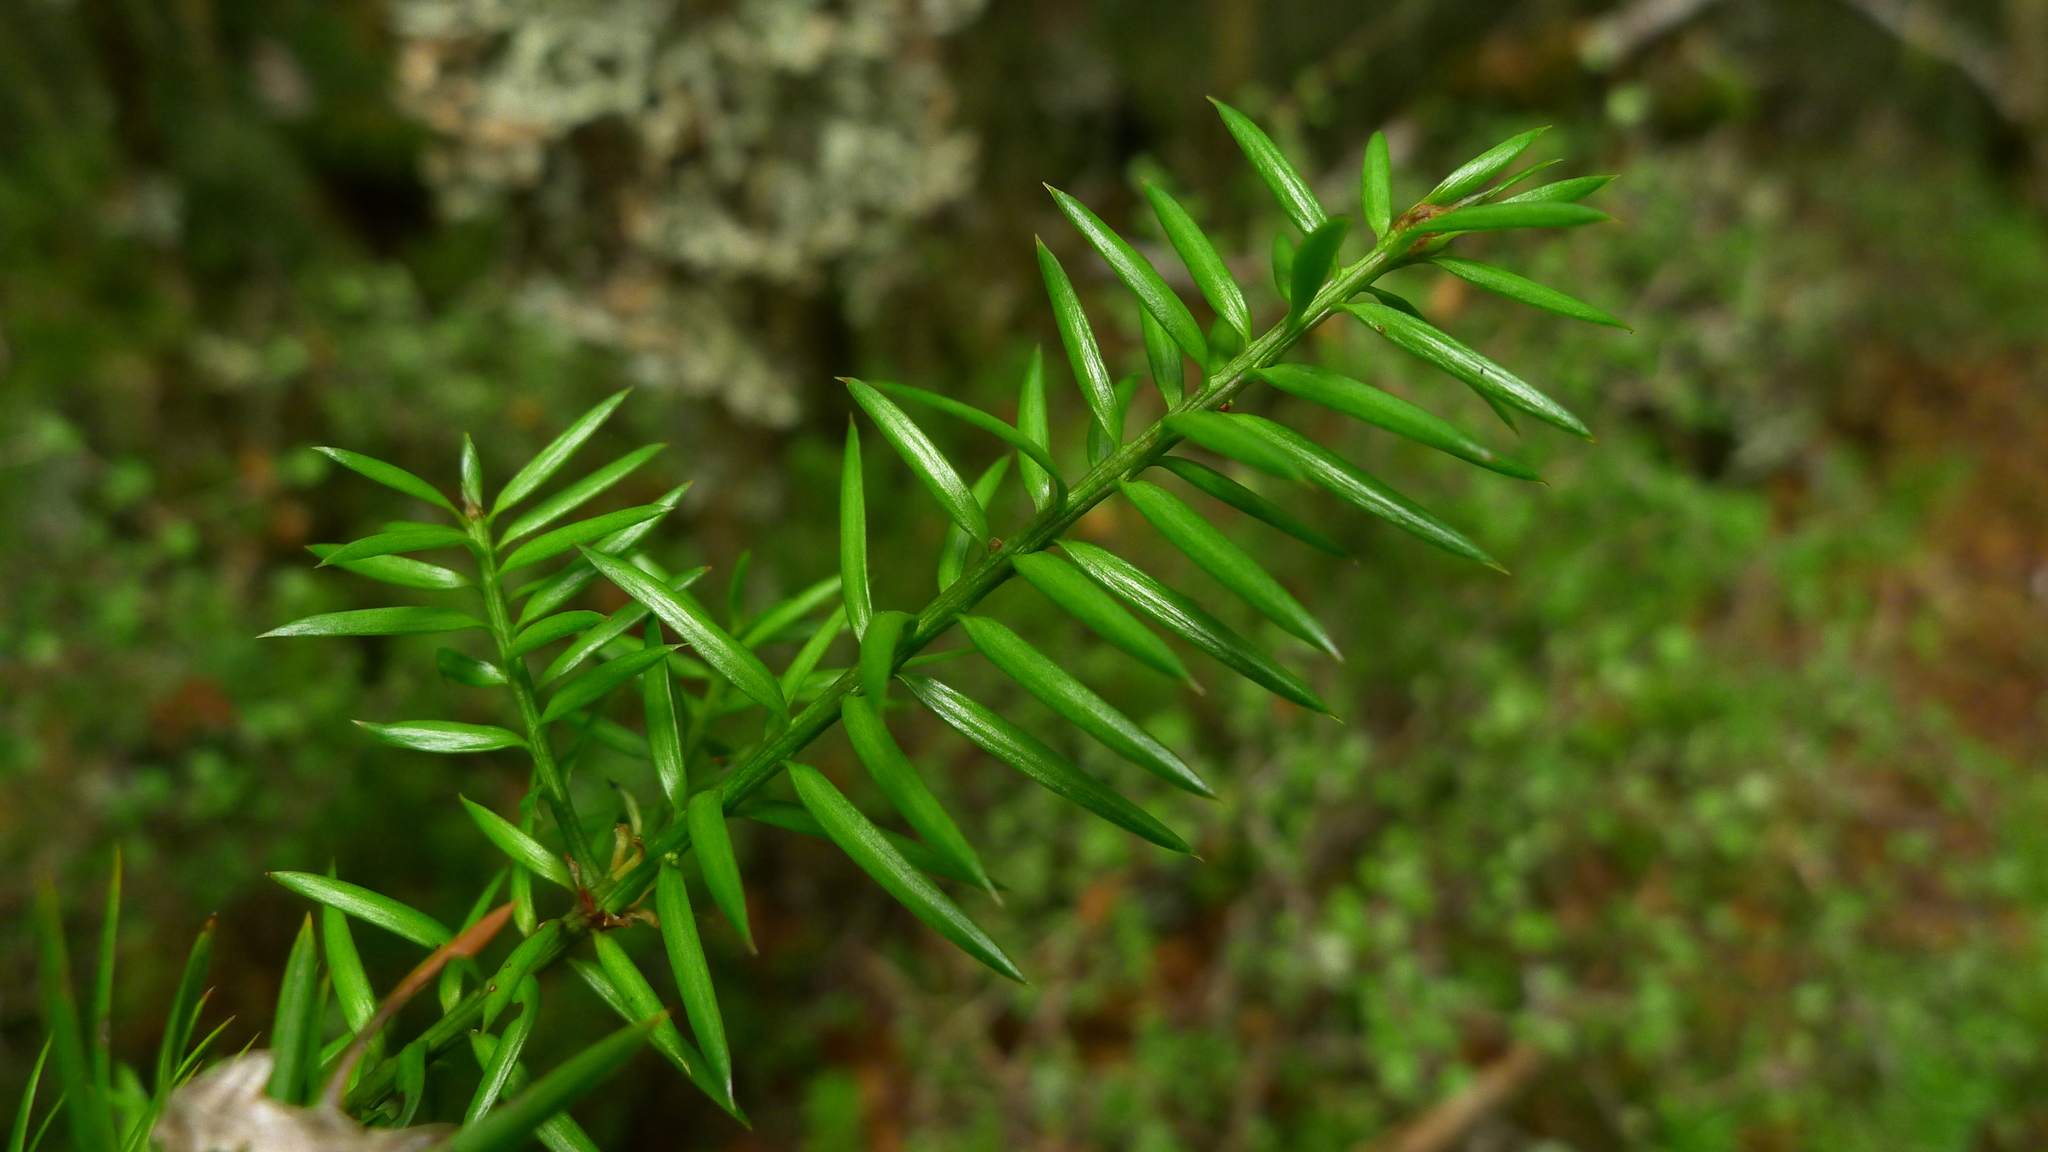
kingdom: Plantae
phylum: Tracheophyta
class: Pinopsida
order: Pinales
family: Podocarpaceae
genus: Podocarpus
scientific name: Podocarpus acutifolius
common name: Needle-leaved totara
